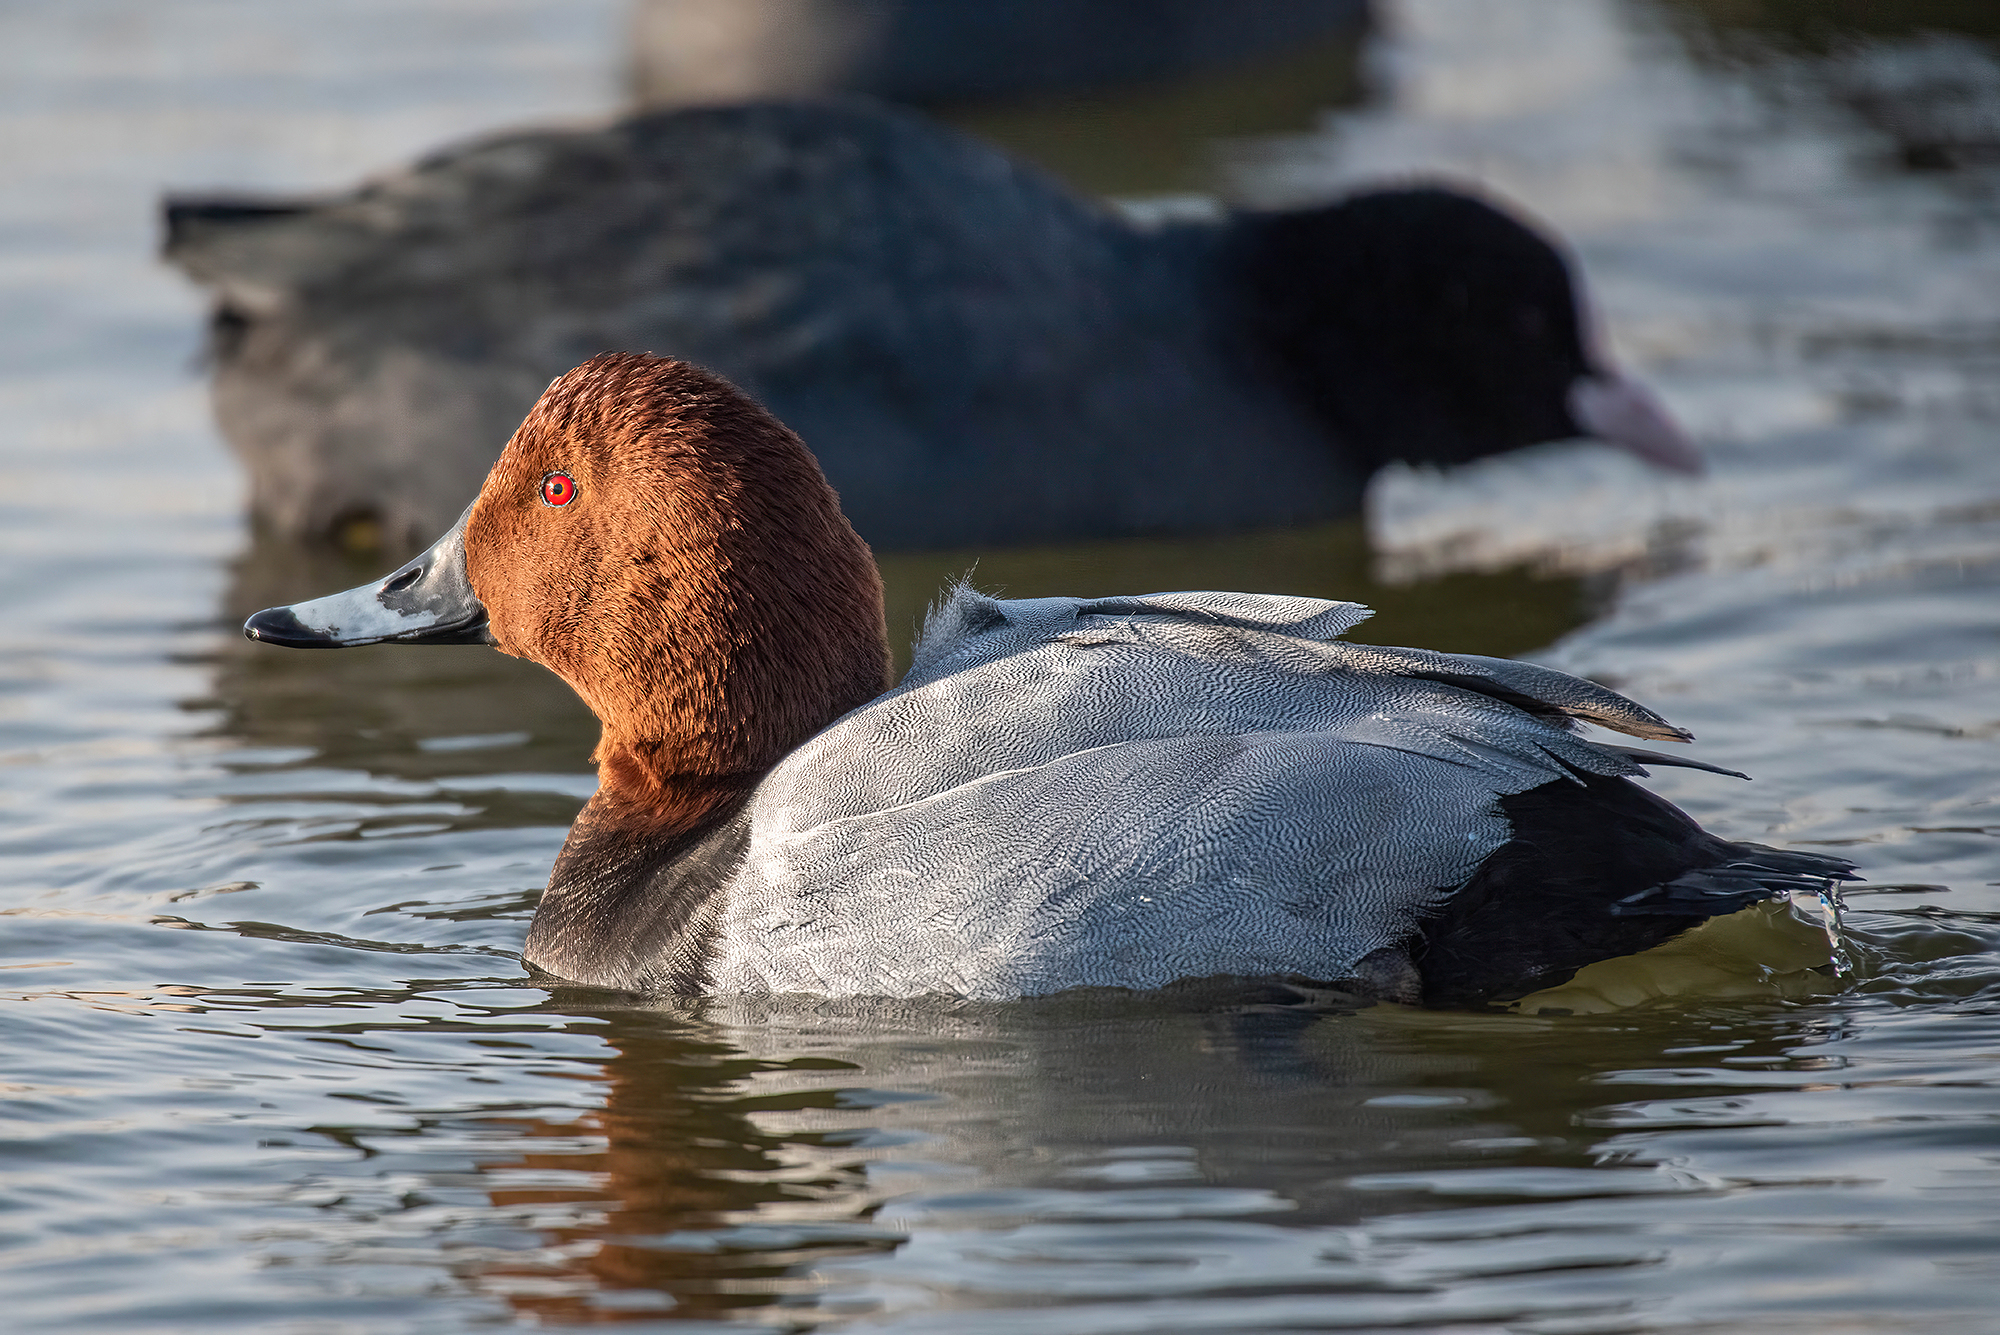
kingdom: Animalia
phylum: Chordata
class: Aves
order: Anseriformes
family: Anatidae
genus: Aythya
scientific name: Aythya ferina
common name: Common pochard
